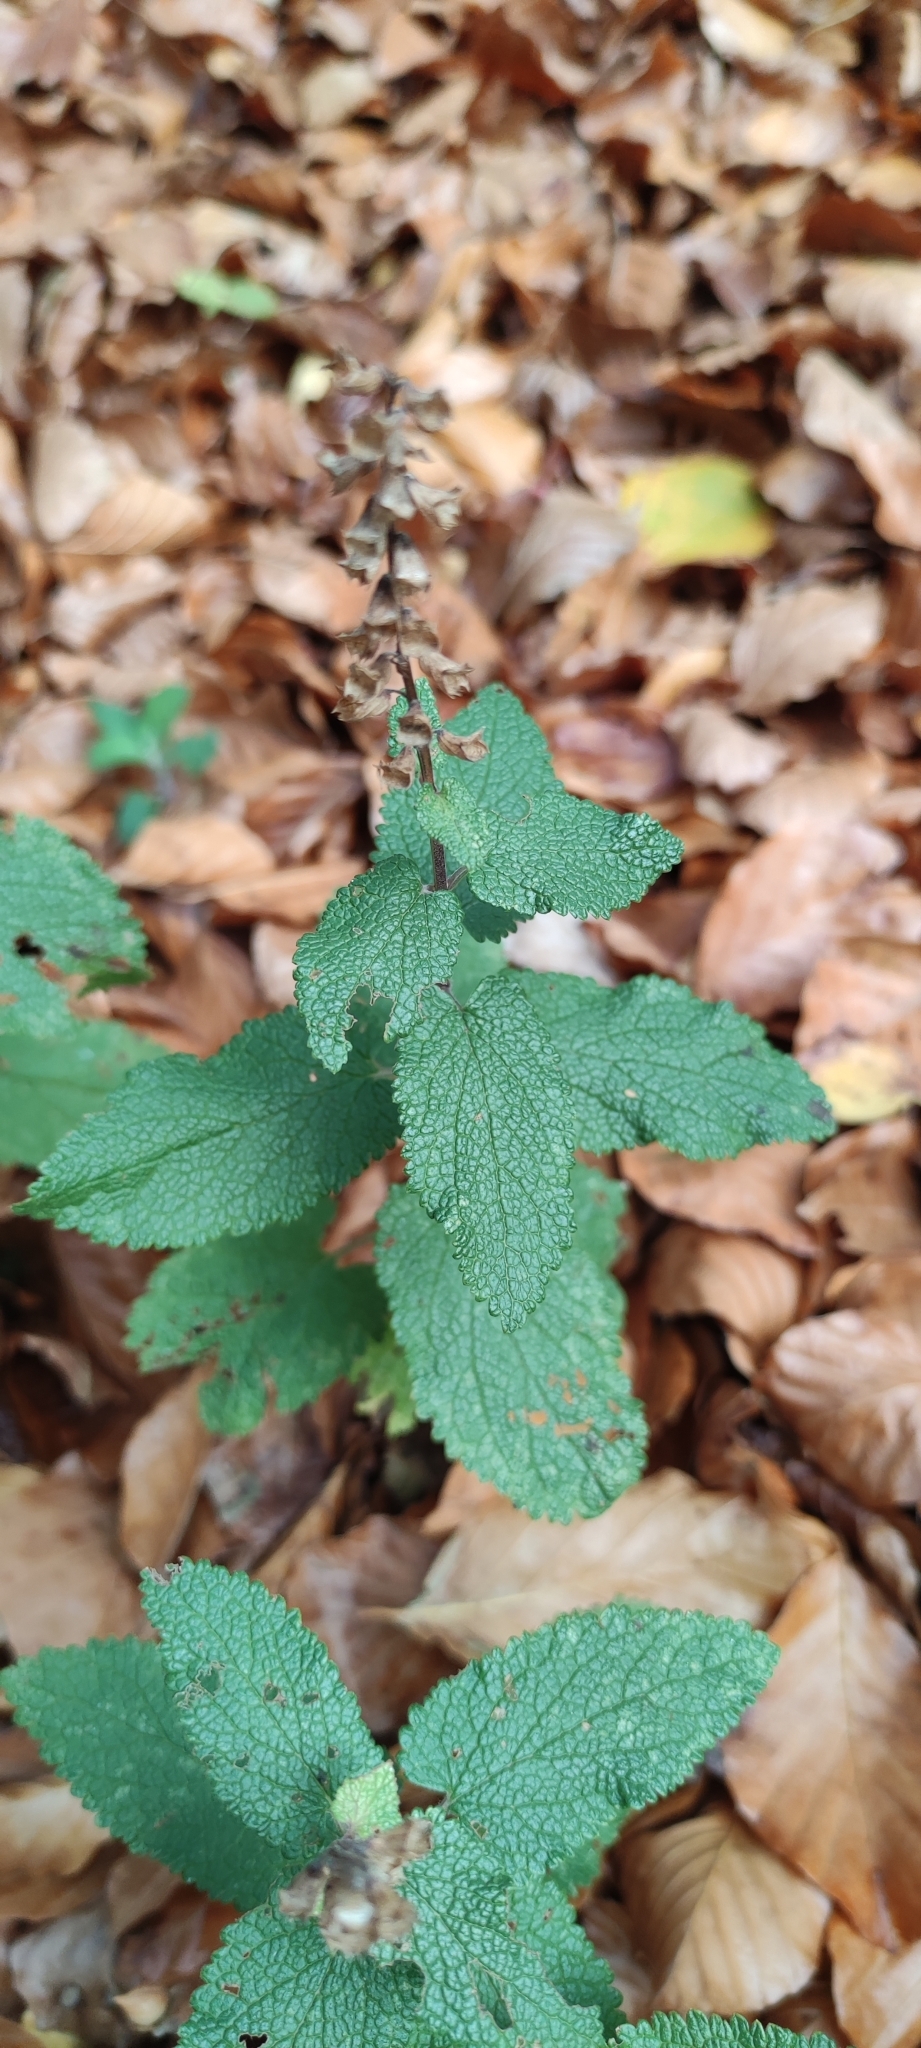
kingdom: Plantae
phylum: Tracheophyta
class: Magnoliopsida
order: Lamiales
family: Lamiaceae
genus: Teucrium
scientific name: Teucrium scorodonia
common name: Woodland germander
